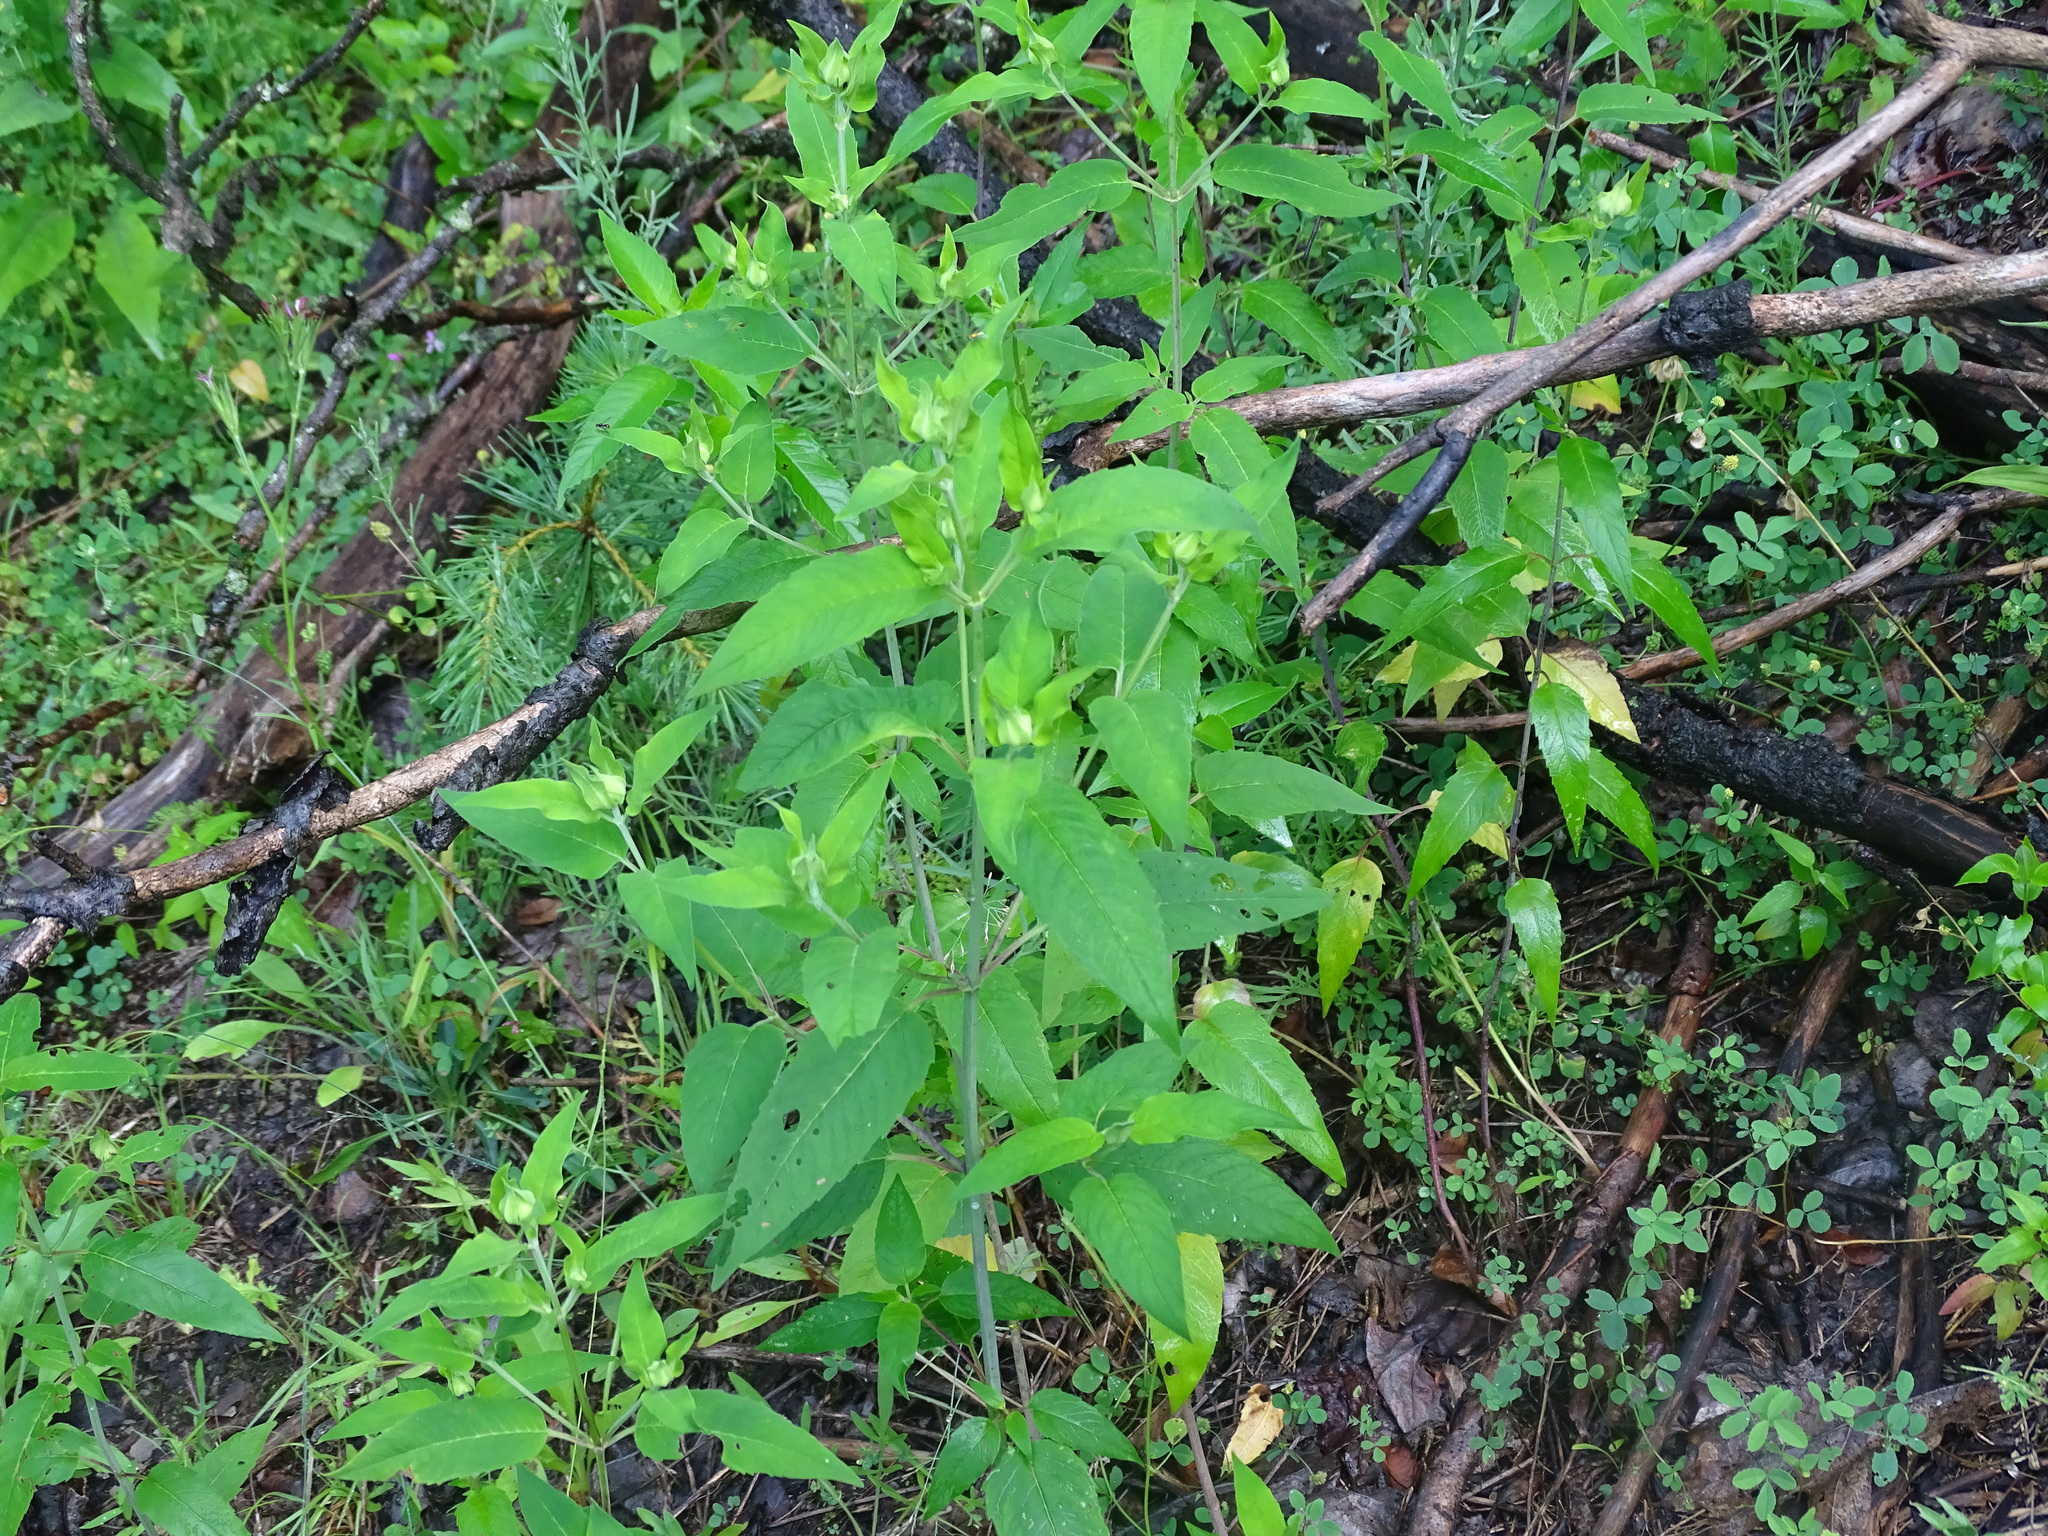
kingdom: Plantae
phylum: Tracheophyta
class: Magnoliopsida
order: Lamiales
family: Lamiaceae
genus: Monarda
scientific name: Monarda fistulosa
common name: Purple beebalm
